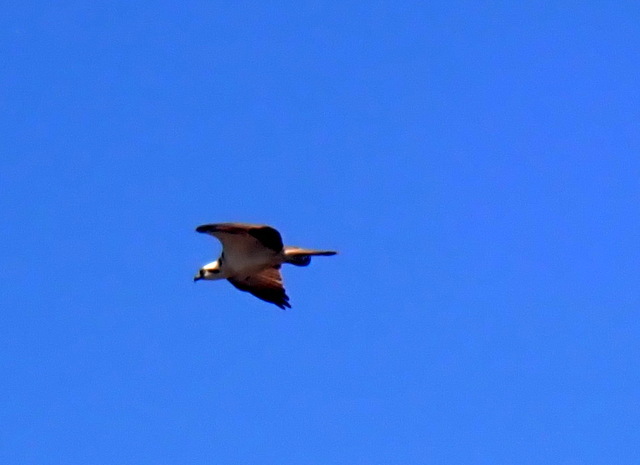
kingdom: Animalia
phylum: Chordata
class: Aves
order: Accipitriformes
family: Pandionidae
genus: Pandion
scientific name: Pandion haliaetus
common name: Osprey
